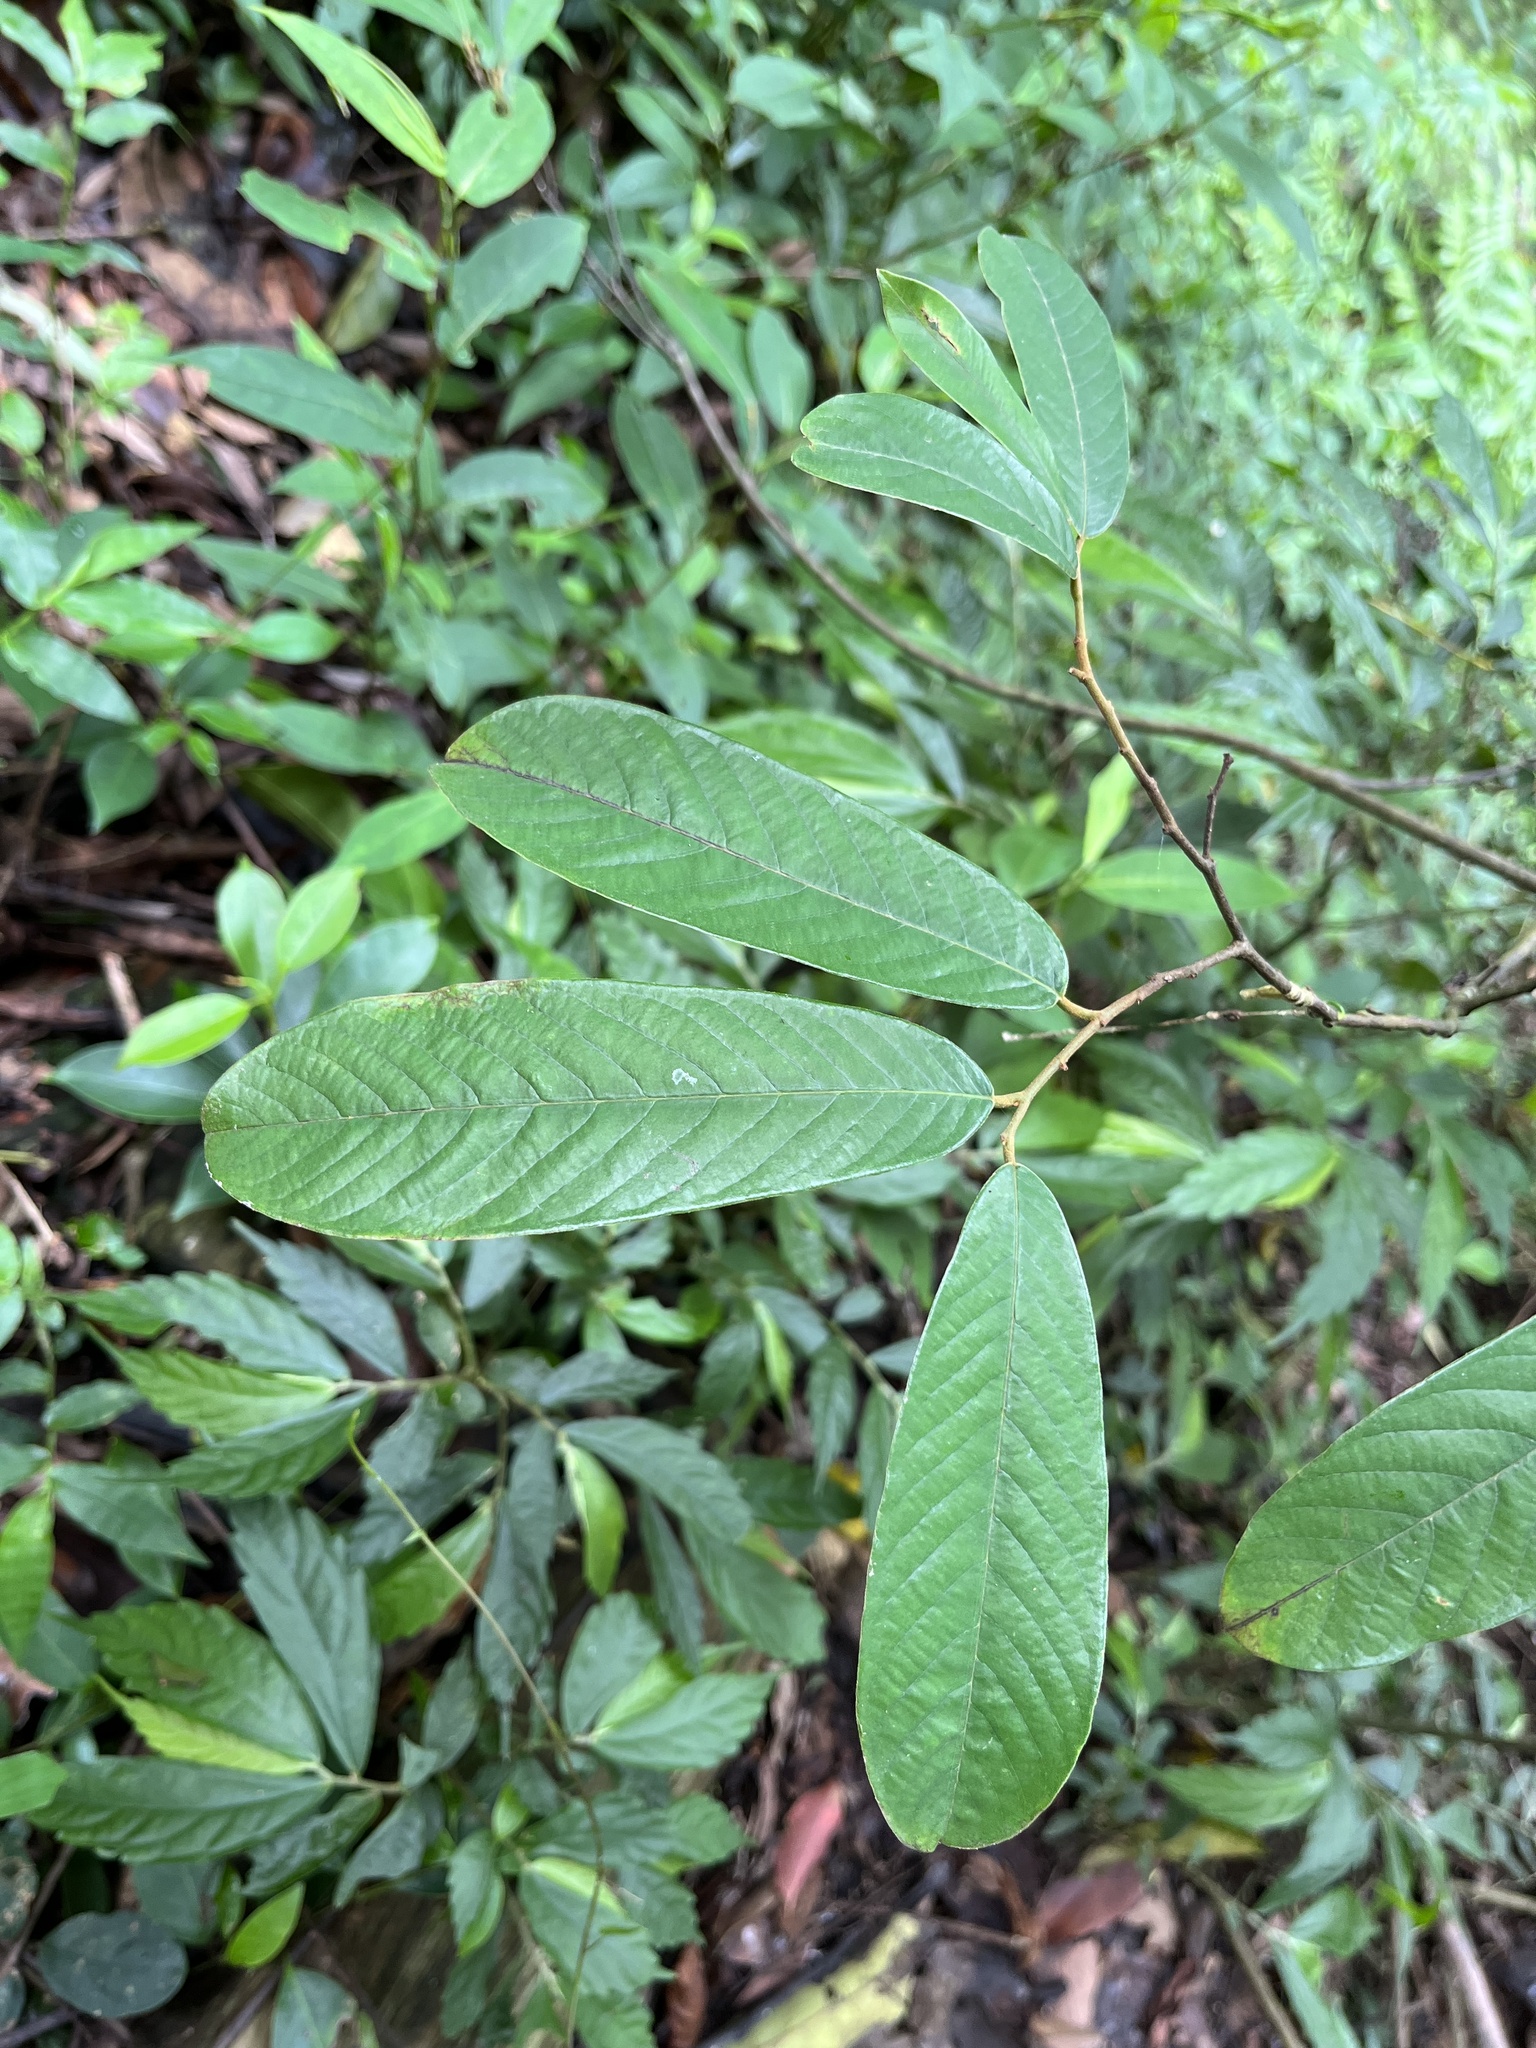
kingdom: Plantae
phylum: Tracheophyta
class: Magnoliopsida
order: Magnoliales
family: Annonaceae
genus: Fissistigma
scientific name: Fissistigma oldhamii
